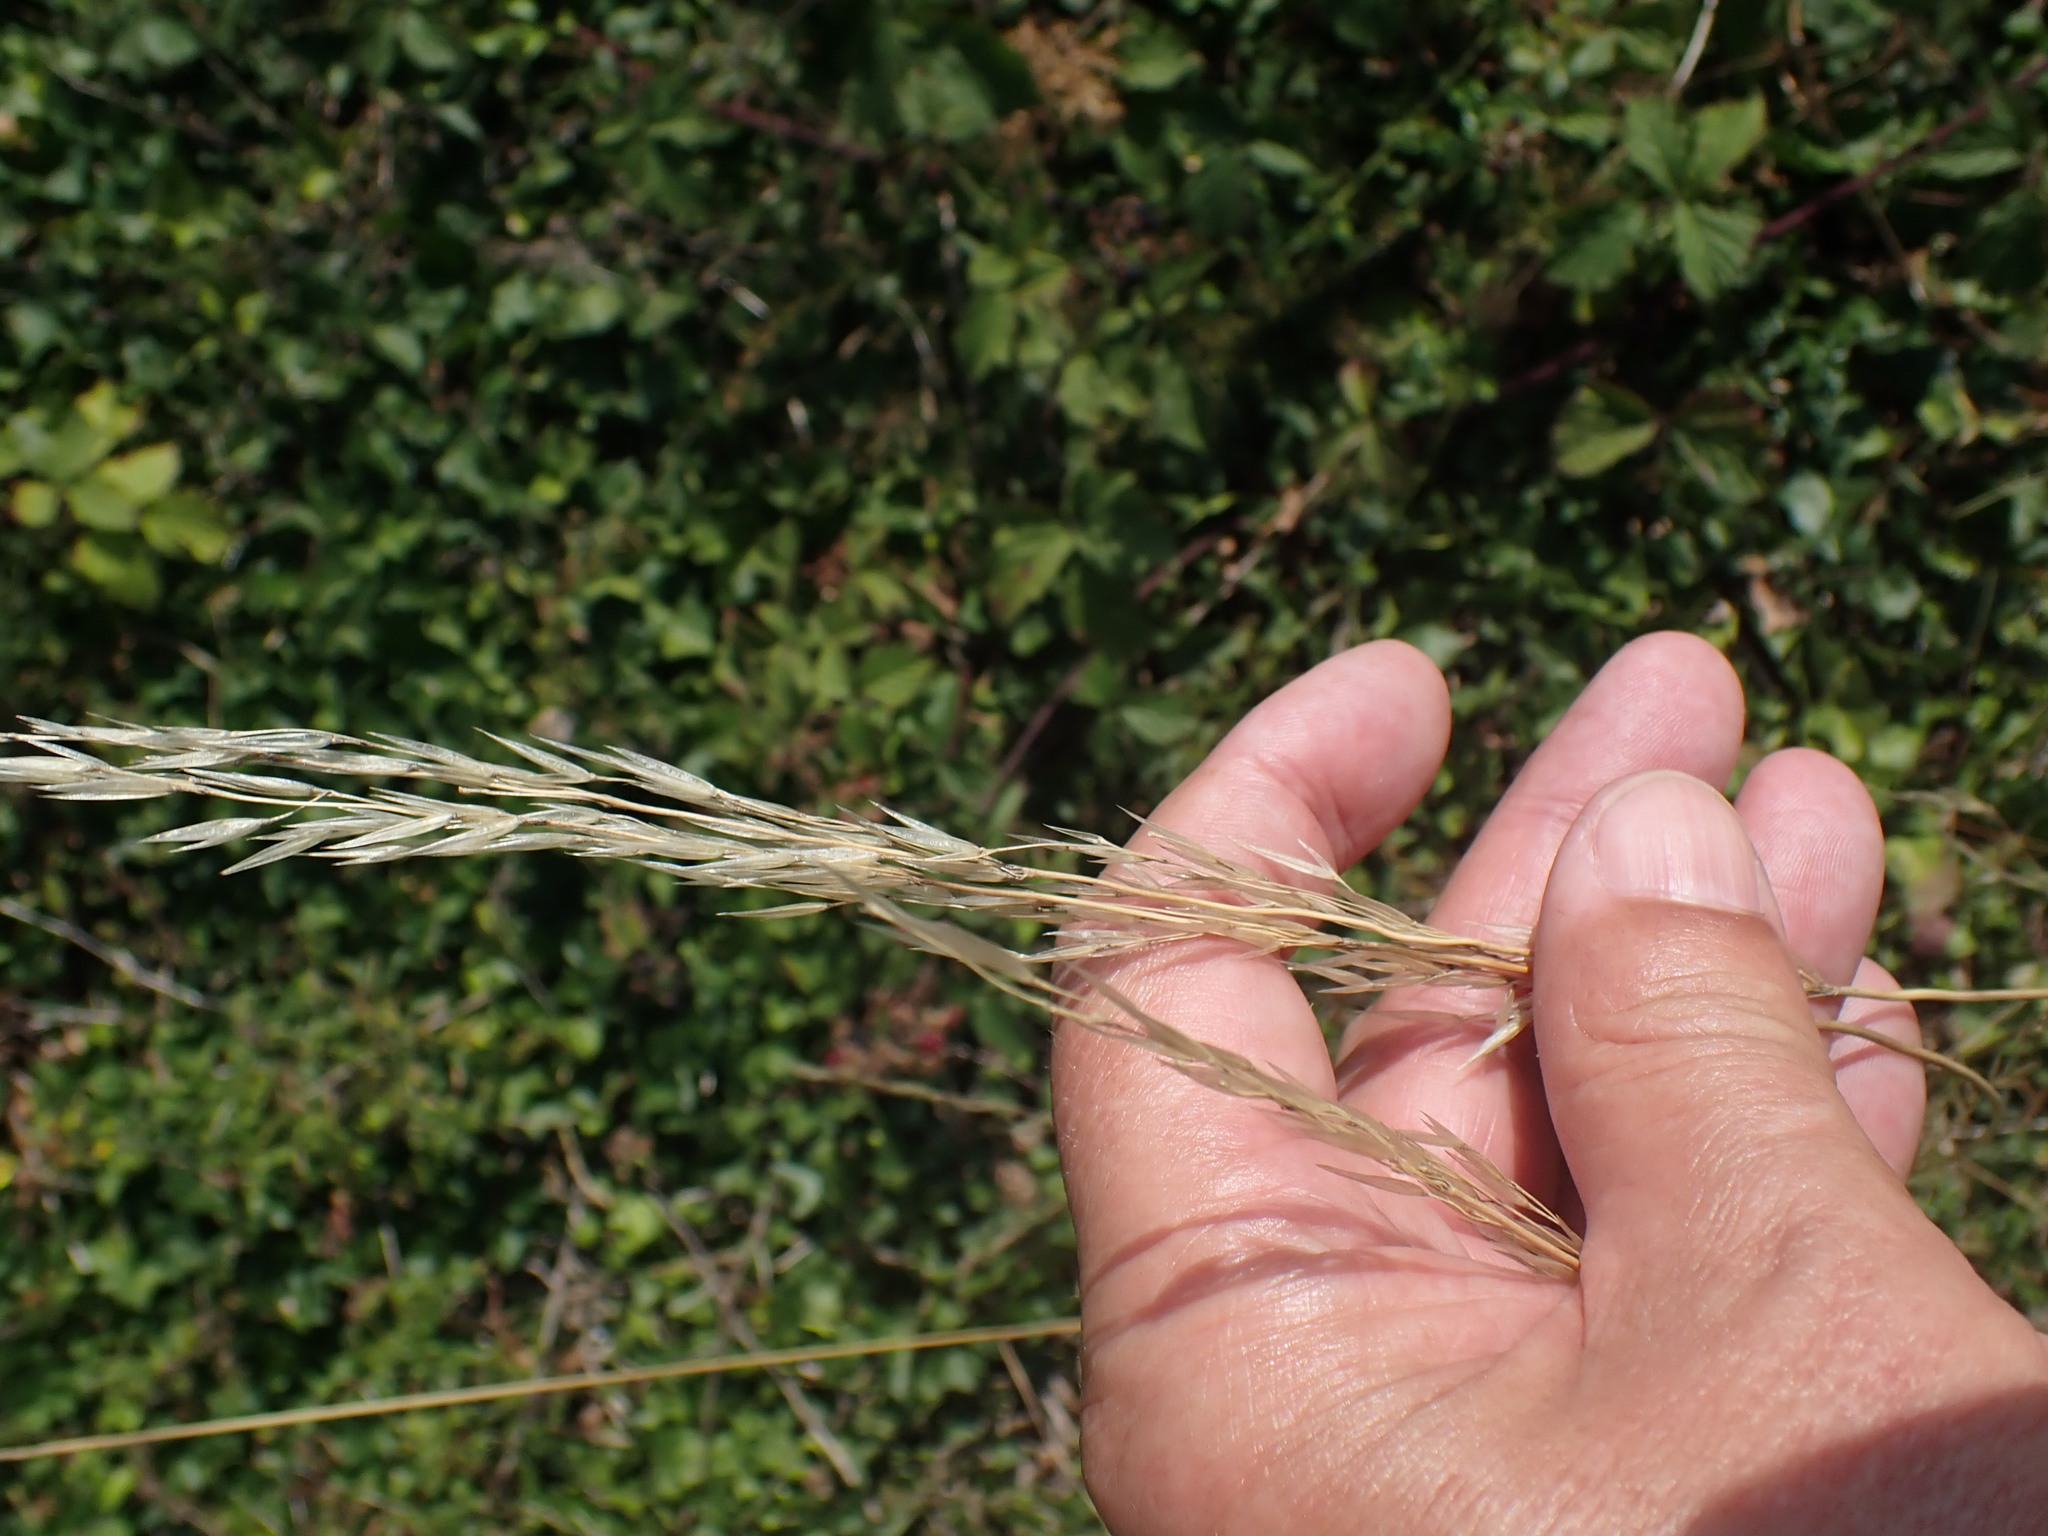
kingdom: Plantae
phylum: Tracheophyta
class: Liliopsida
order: Poales
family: Poaceae
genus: Arrhenatherum
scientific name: Arrhenatherum elatius
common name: Tall oatgrass
